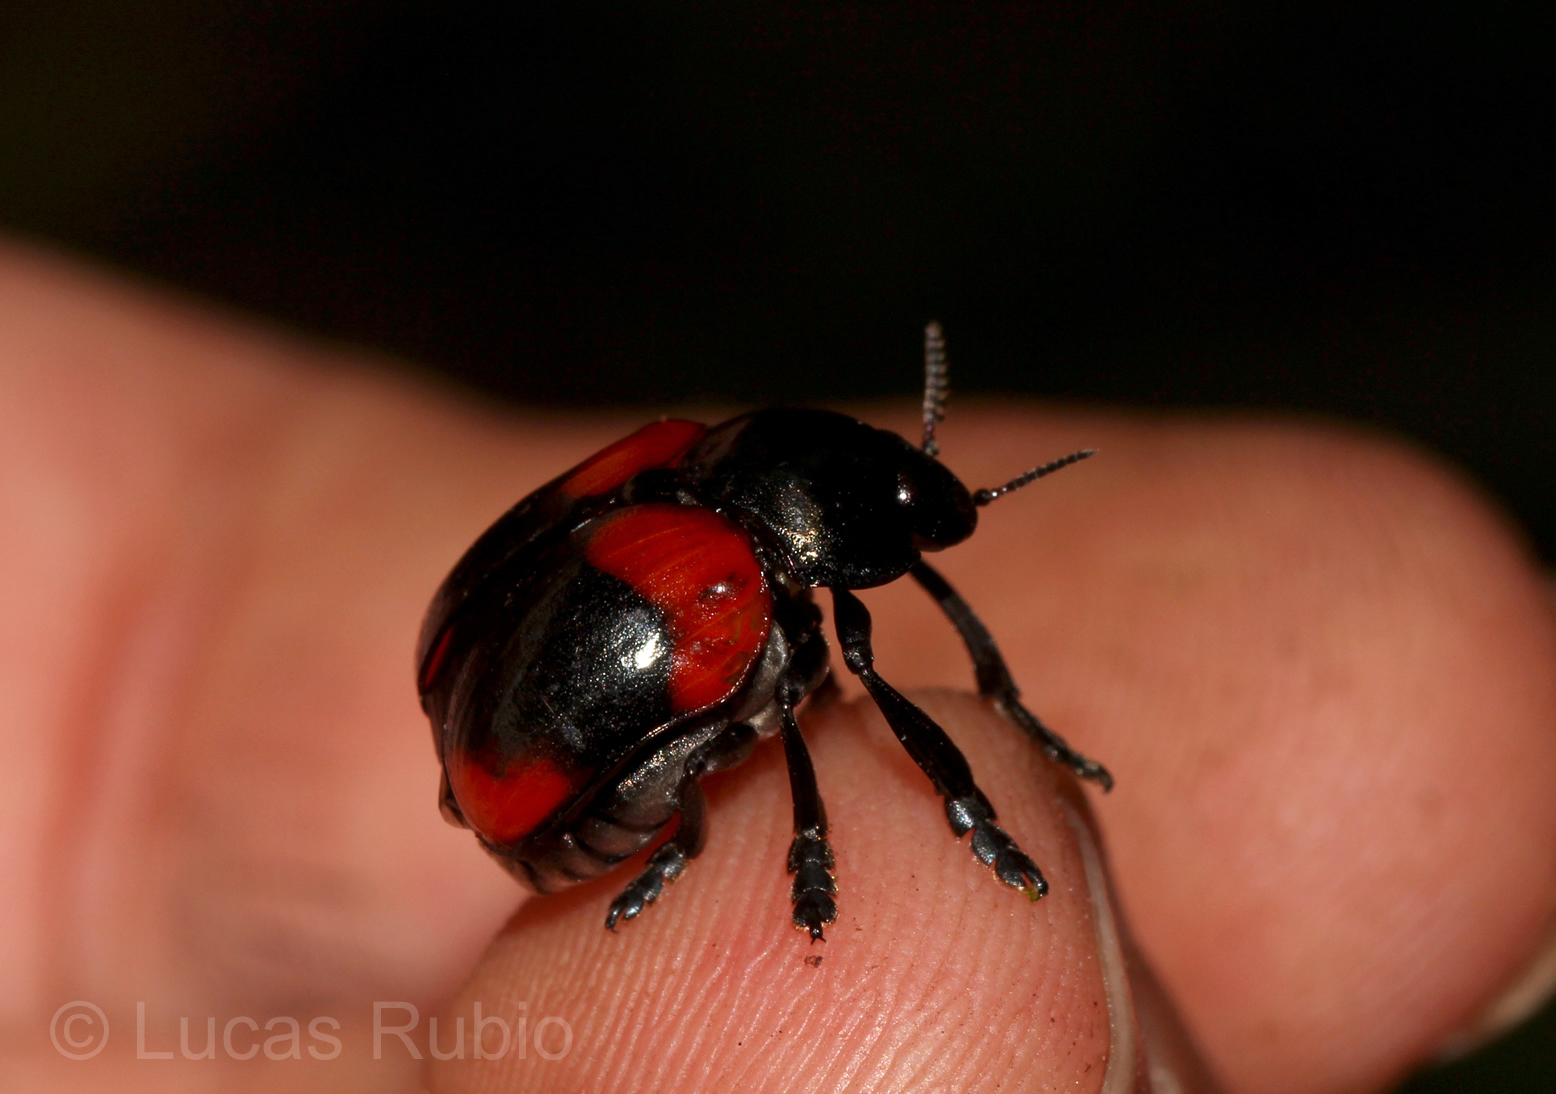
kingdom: Animalia
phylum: Arthropoda
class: Insecta
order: Coleoptera
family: Chrysomelidae
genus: Stereoma
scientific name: Stereoma
